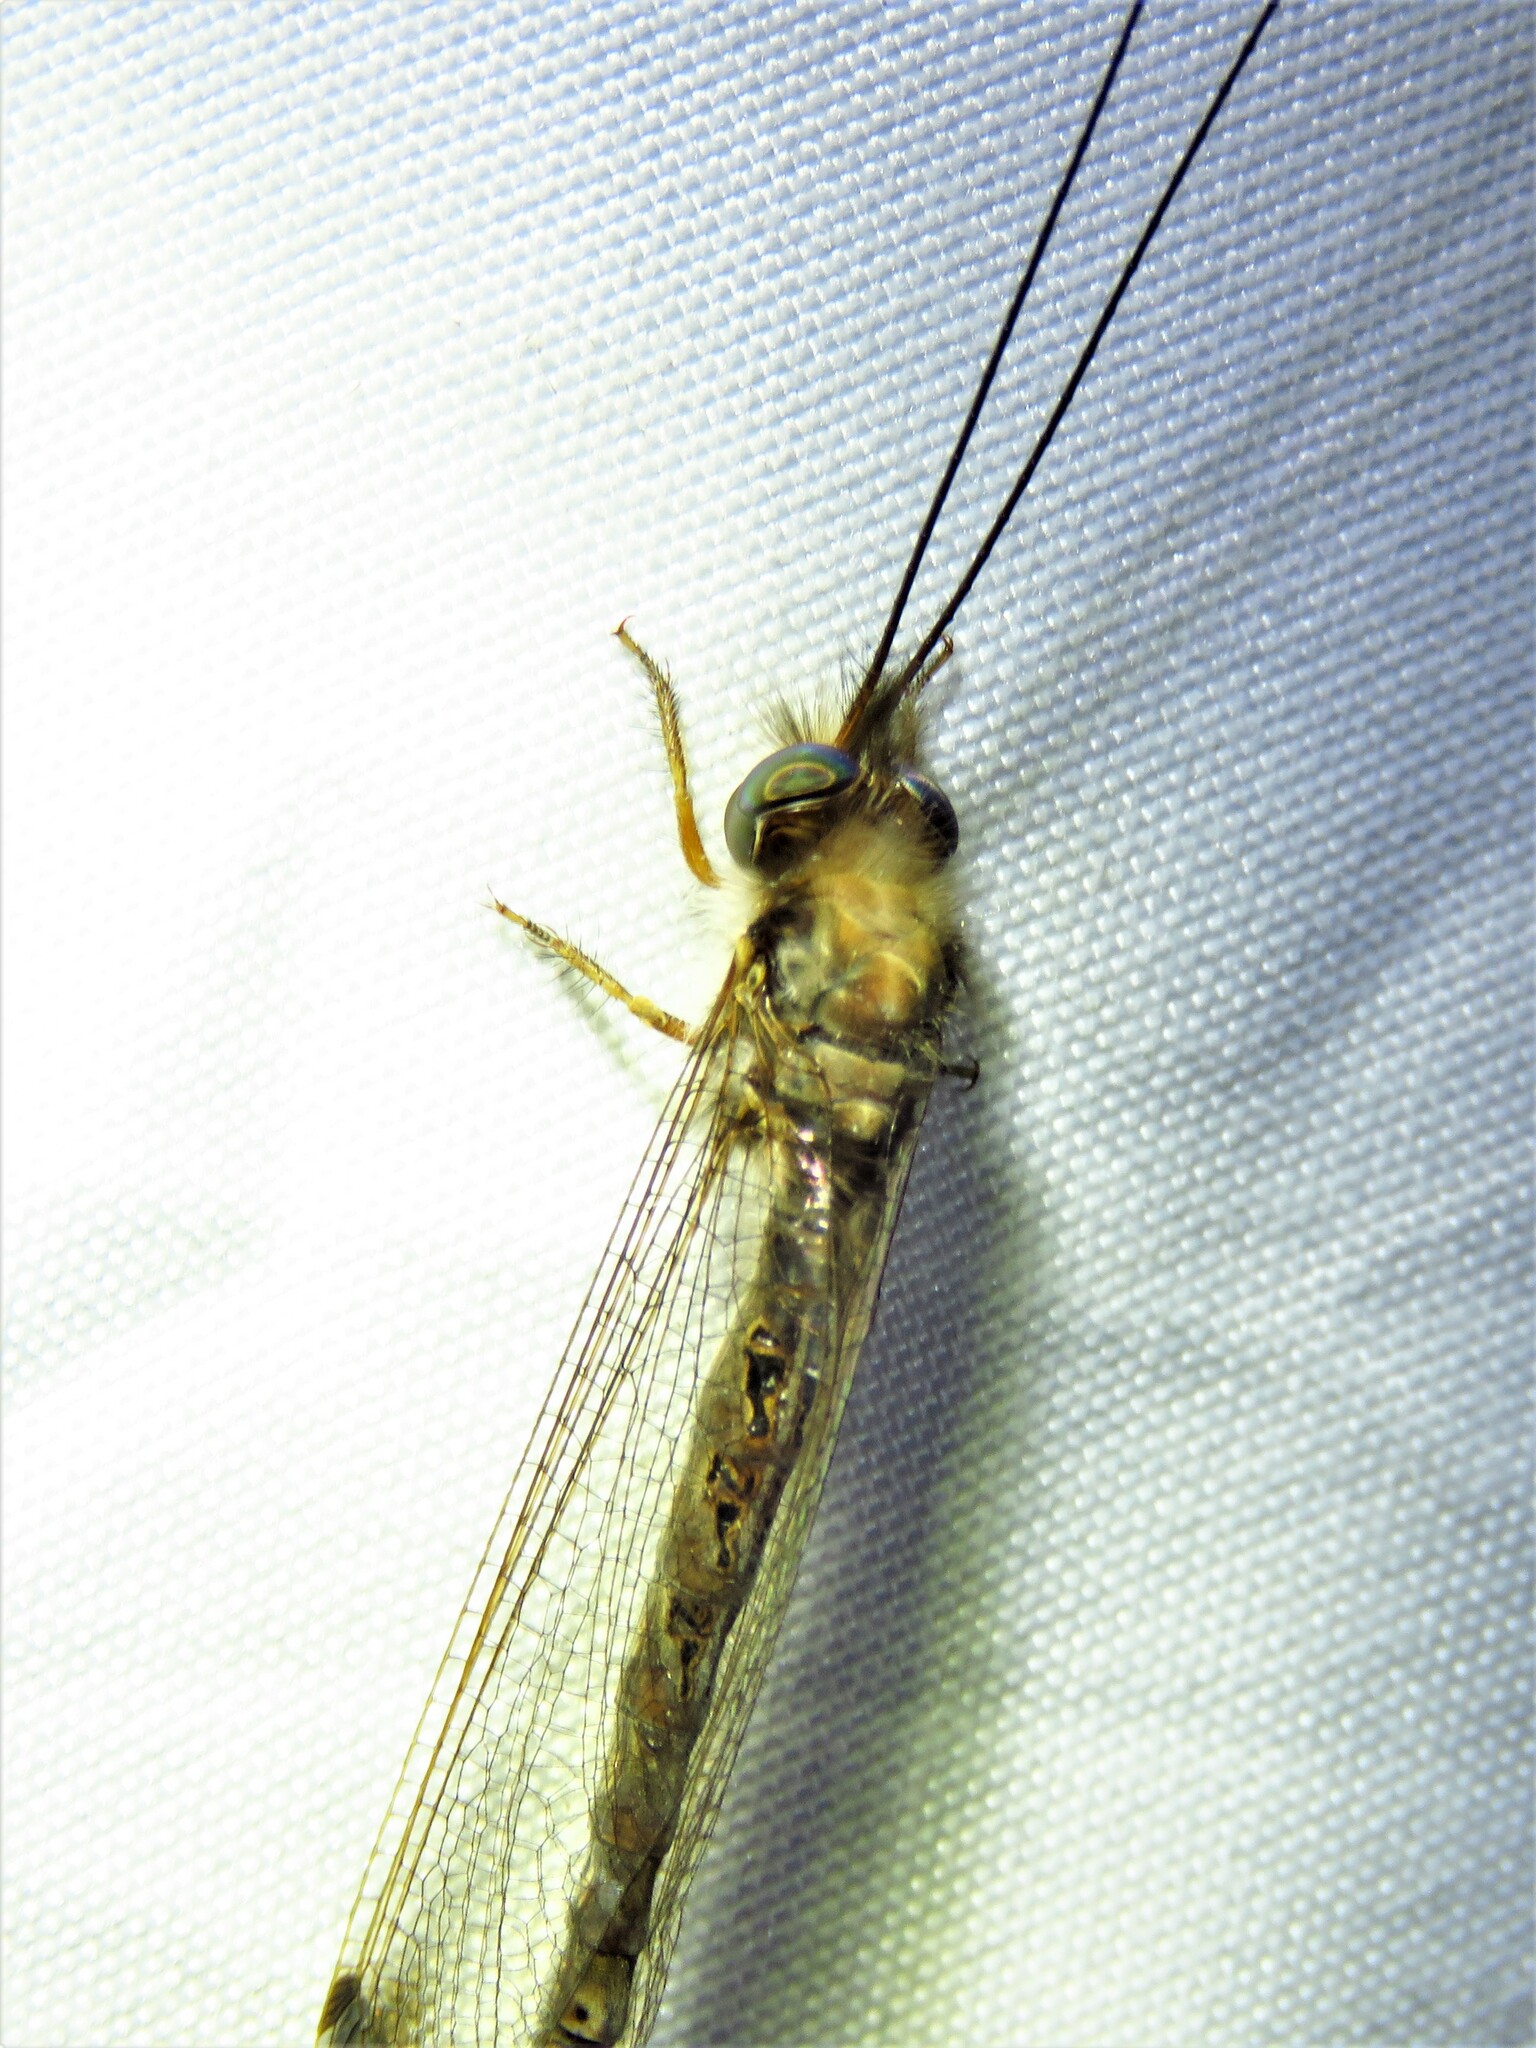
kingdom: Animalia
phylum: Arthropoda
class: Insecta
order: Neuroptera
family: Ascalaphidae
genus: Ululodes
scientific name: Ululodes macleayanus
